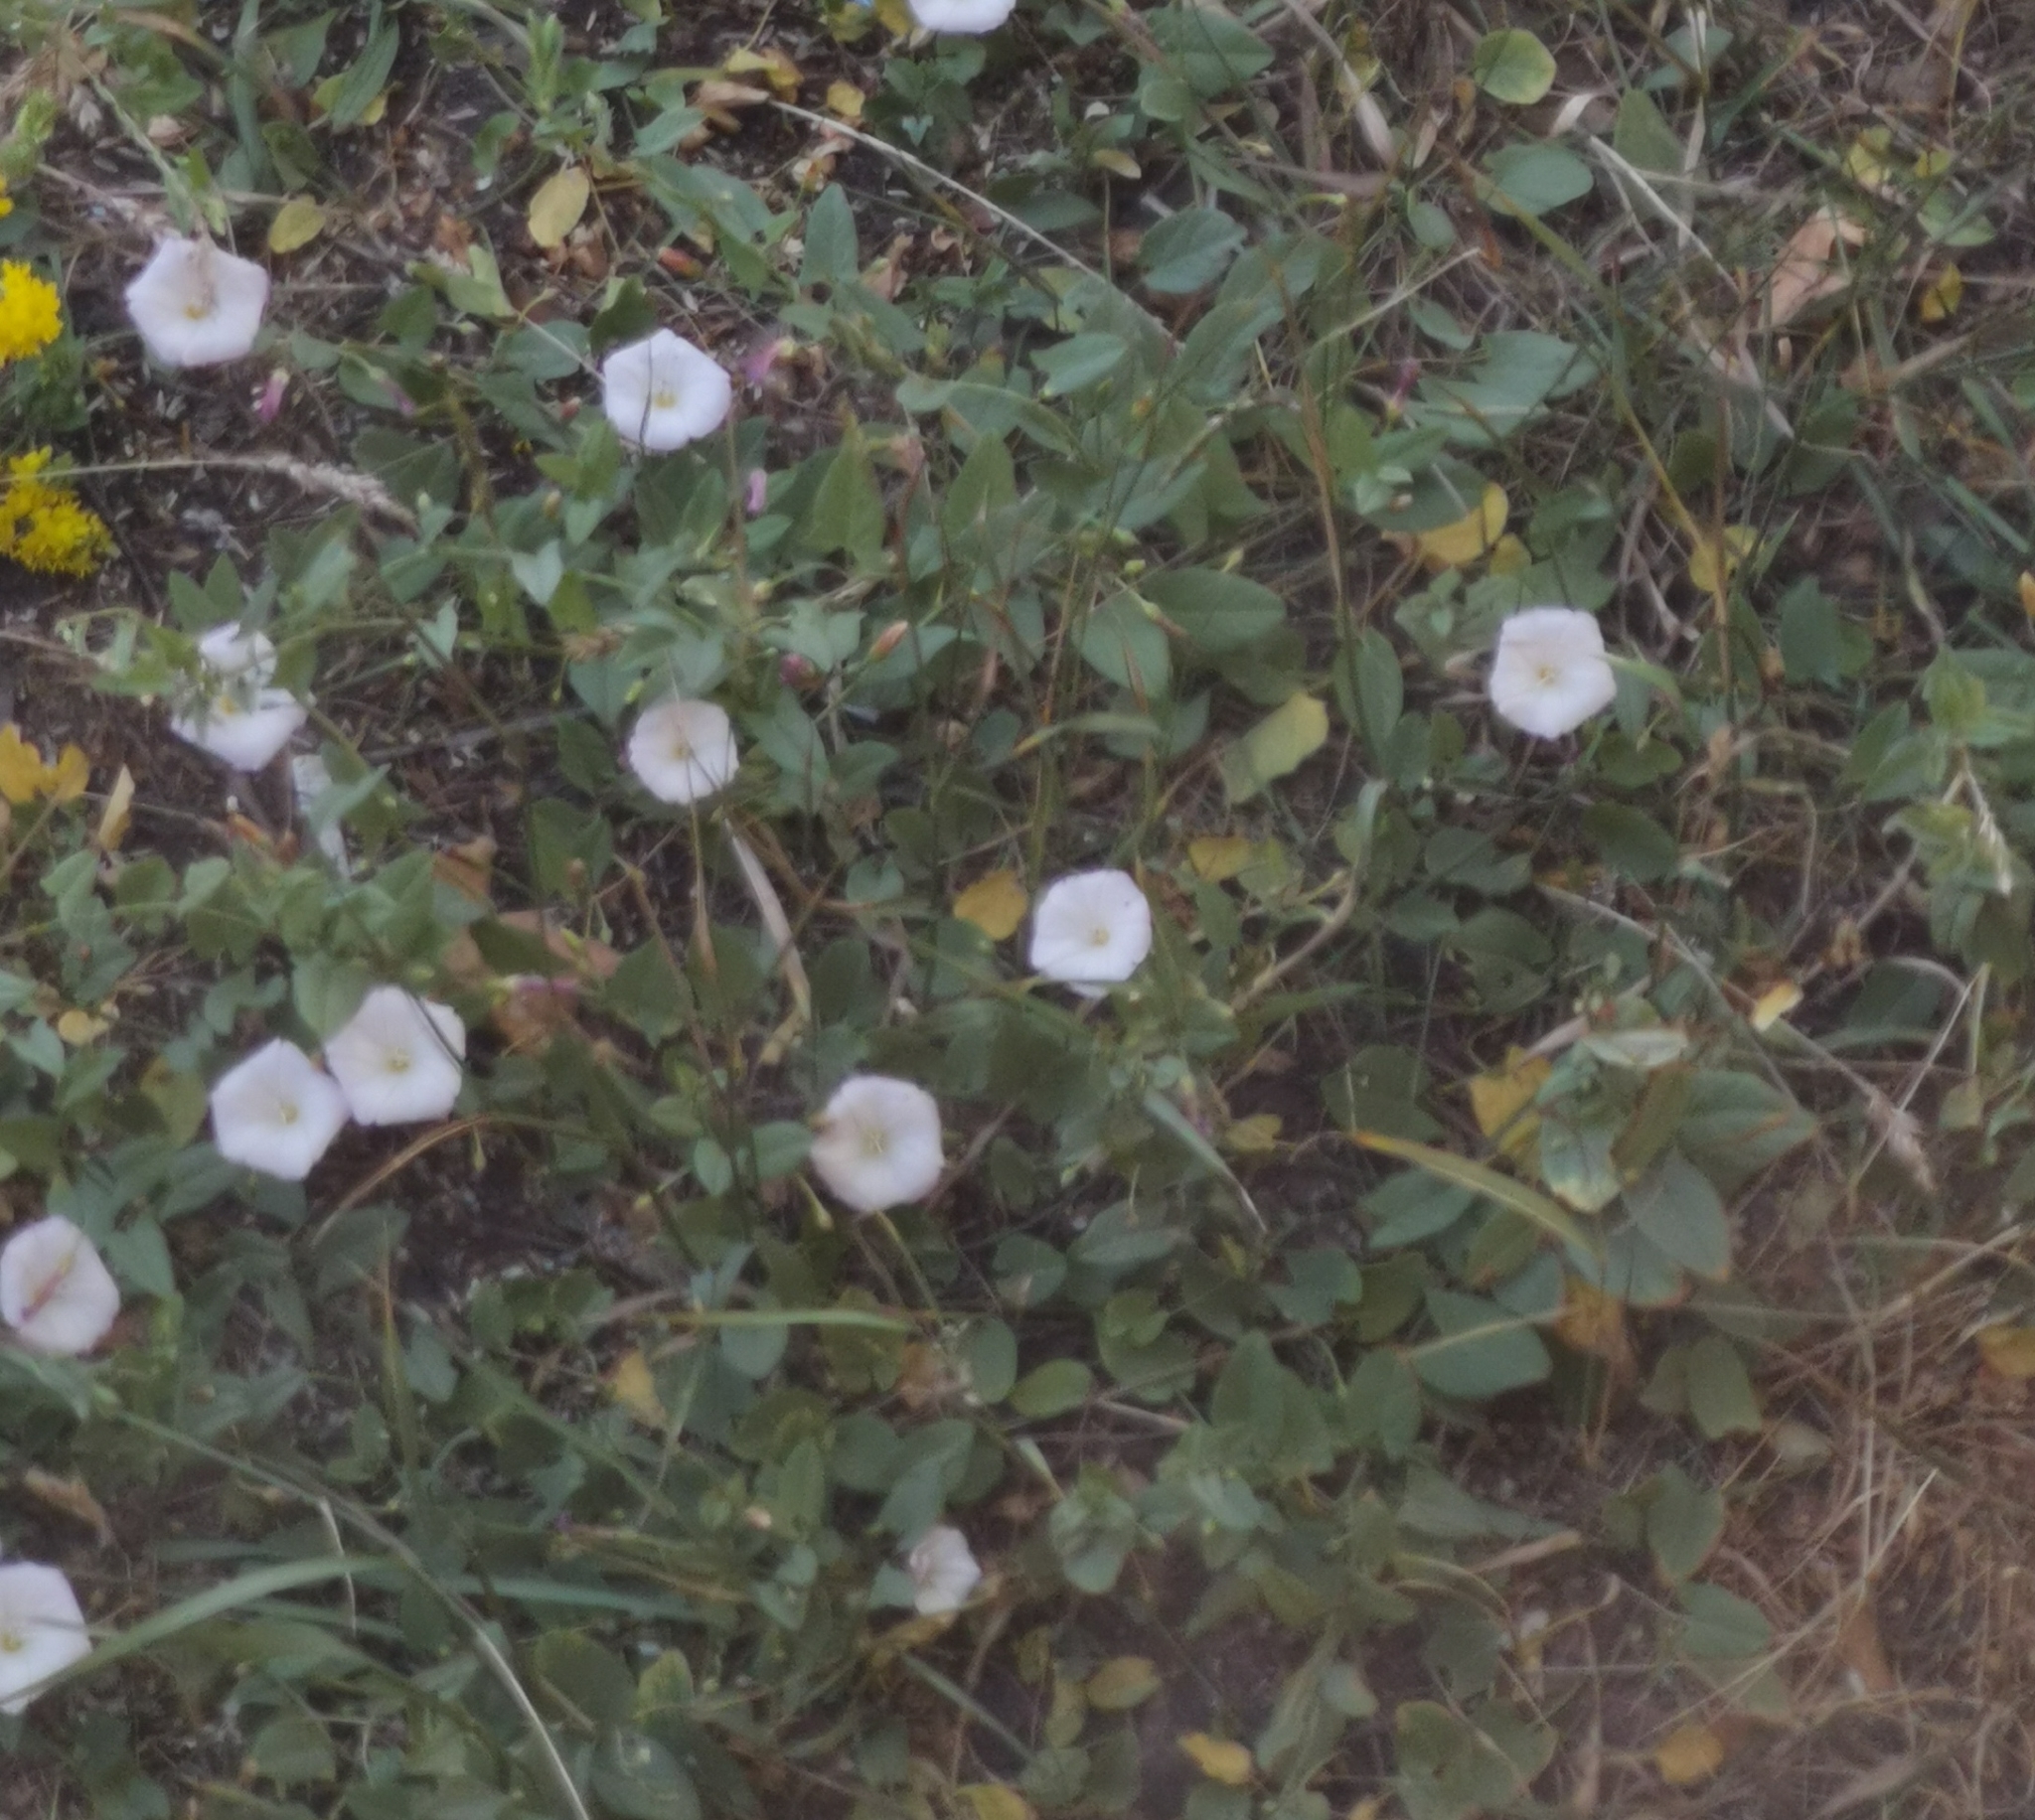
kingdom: Plantae
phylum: Tracheophyta
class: Magnoliopsida
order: Solanales
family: Convolvulaceae
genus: Convolvulus
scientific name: Convolvulus arvensis
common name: Field bindweed
